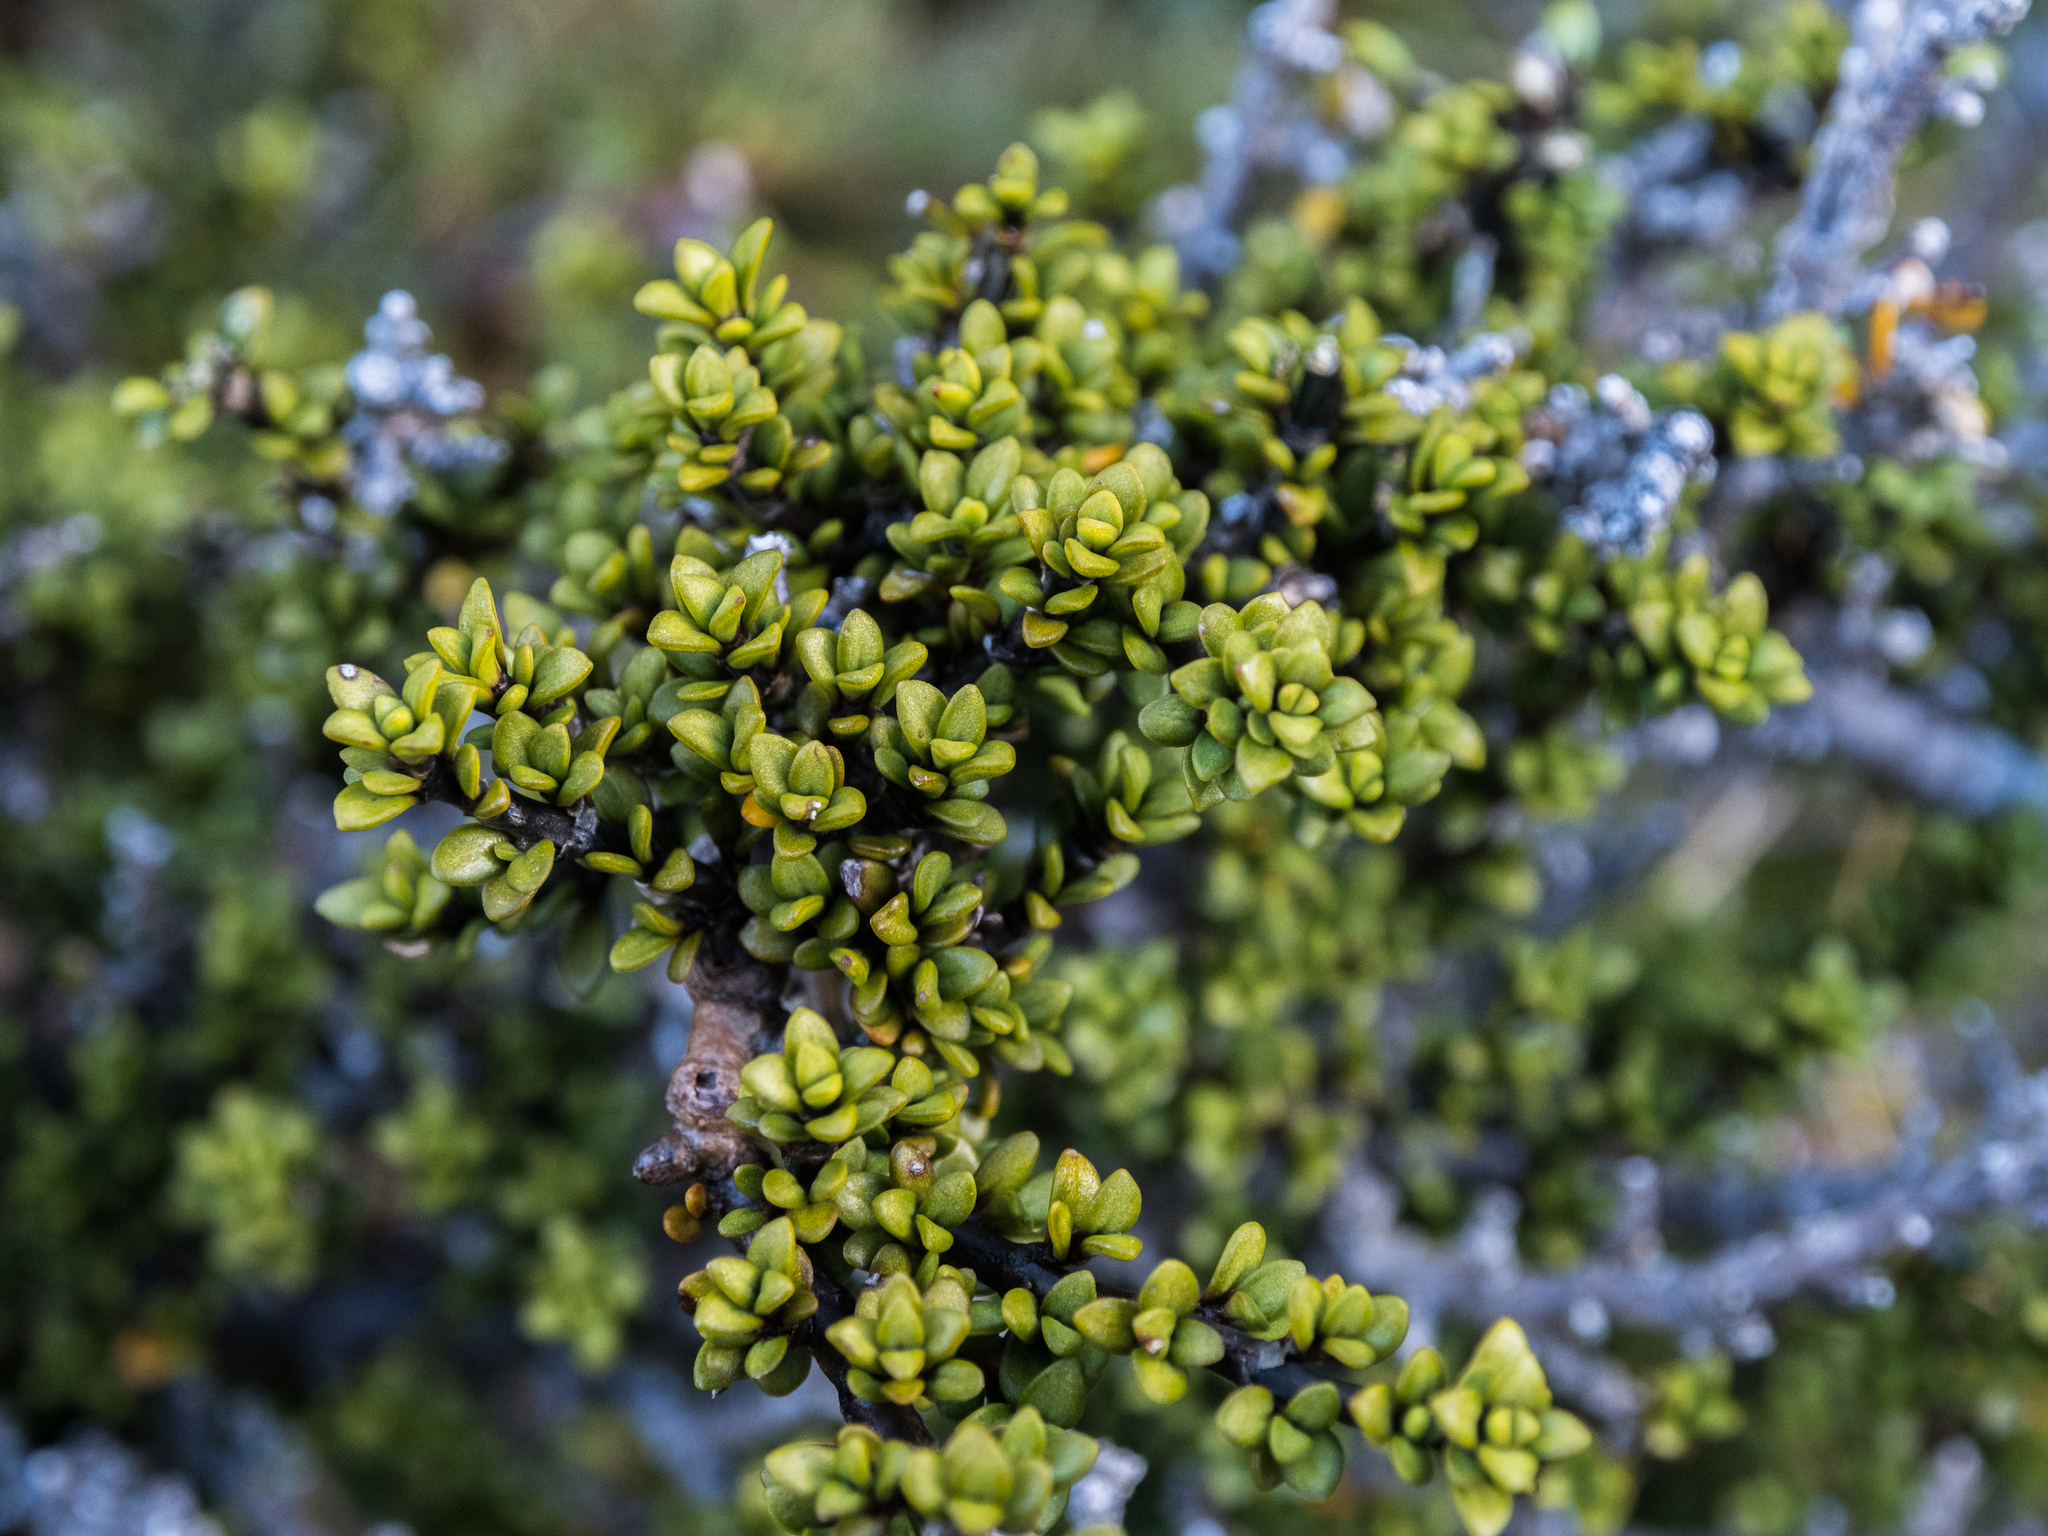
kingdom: Plantae
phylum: Tracheophyta
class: Magnoliopsida
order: Gentianales
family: Rubiaceae
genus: Coprosma
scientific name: Coprosma pseudocuneata
